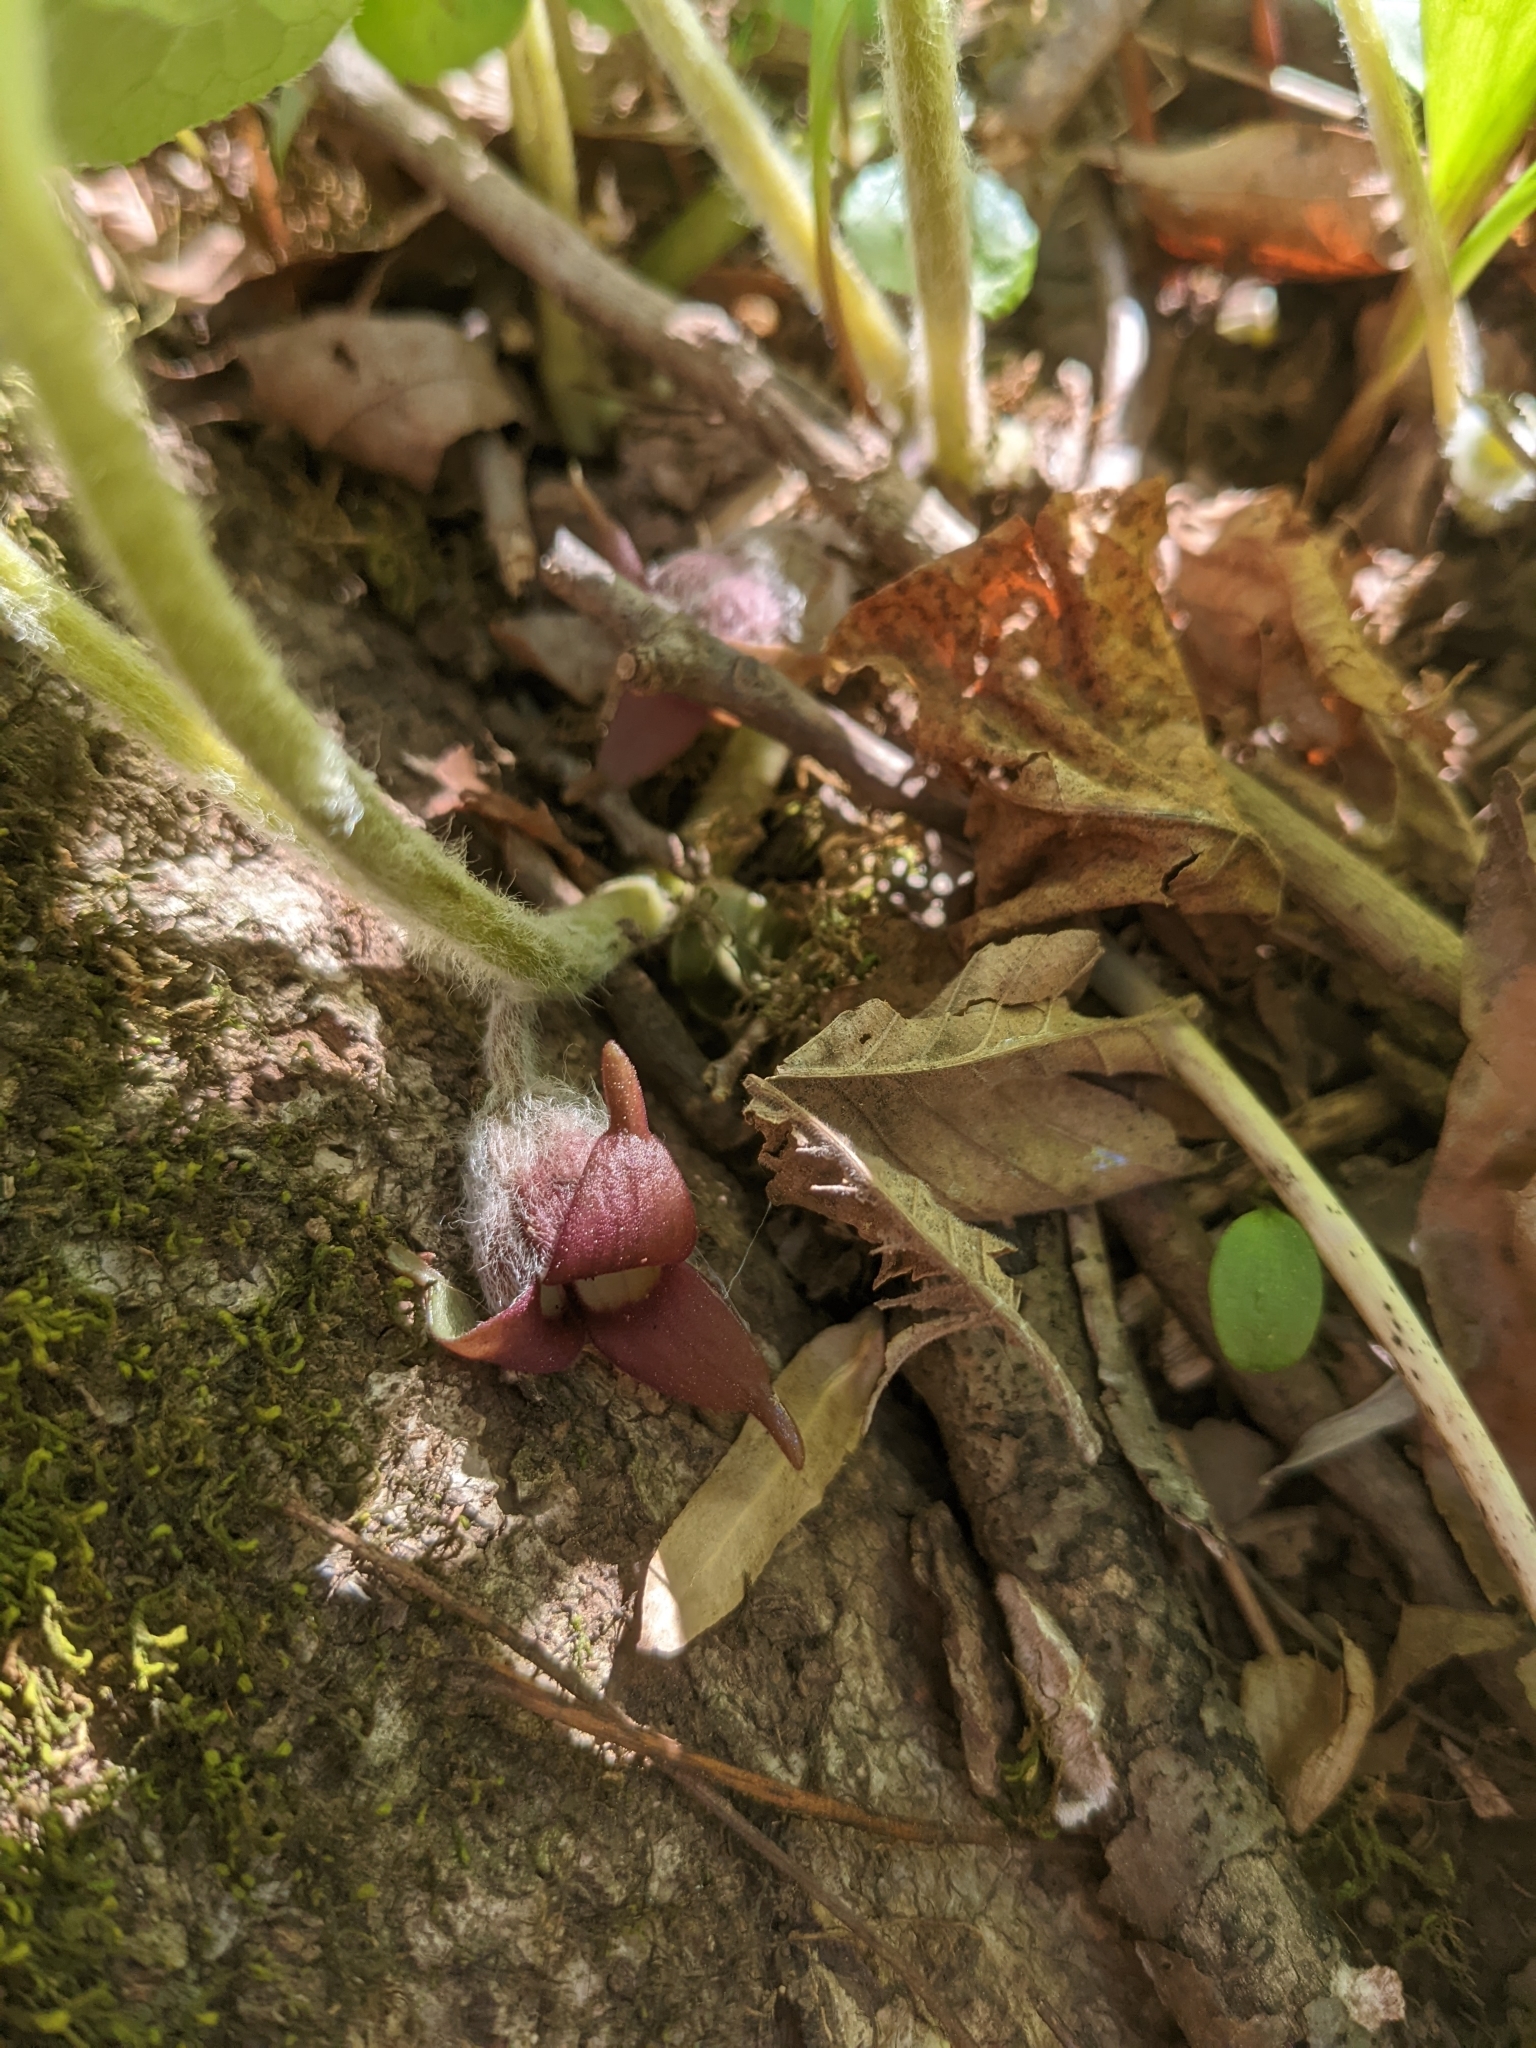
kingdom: Plantae
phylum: Tracheophyta
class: Magnoliopsida
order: Piperales
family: Aristolochiaceae
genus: Asarum
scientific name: Asarum canadense
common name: Wild ginger
